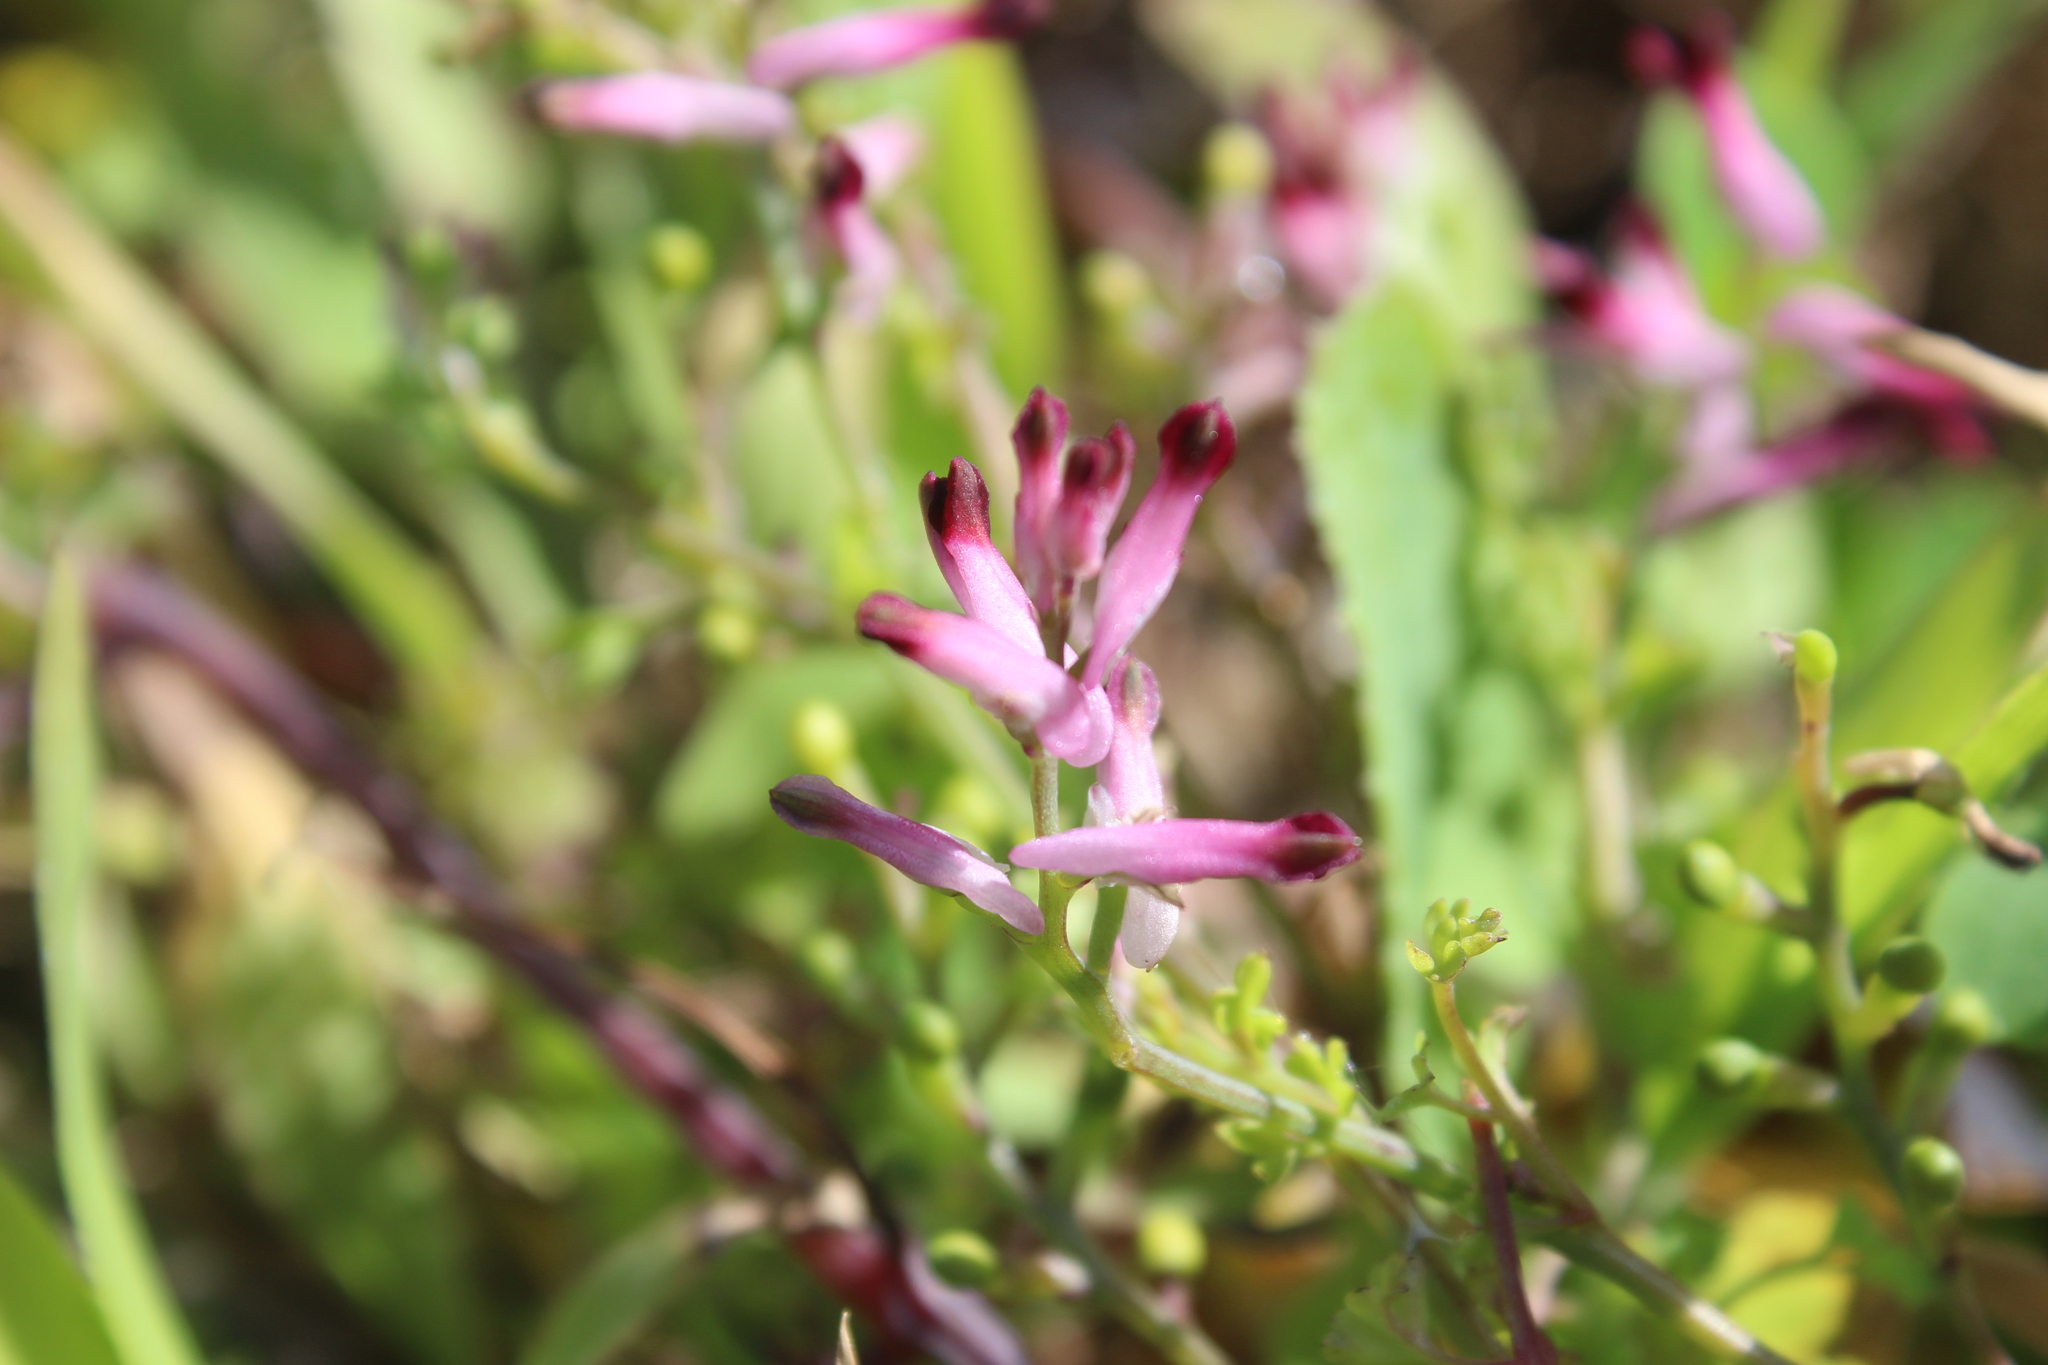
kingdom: Plantae
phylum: Tracheophyta
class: Magnoliopsida
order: Ranunculales
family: Papaveraceae
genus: Fumaria
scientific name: Fumaria muralis
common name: Common ramping-fumitory
